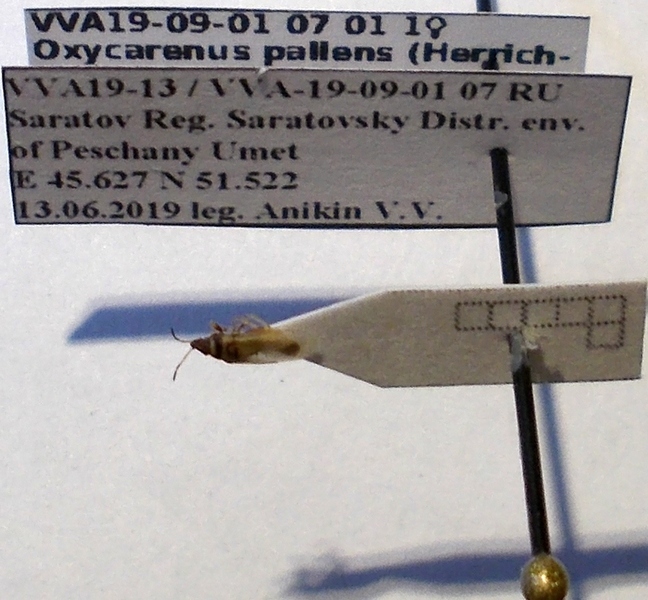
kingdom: Animalia
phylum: Arthropoda
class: Insecta
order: Hemiptera
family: Oxycarenidae
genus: Oxycarenus
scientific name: Oxycarenus pallens
